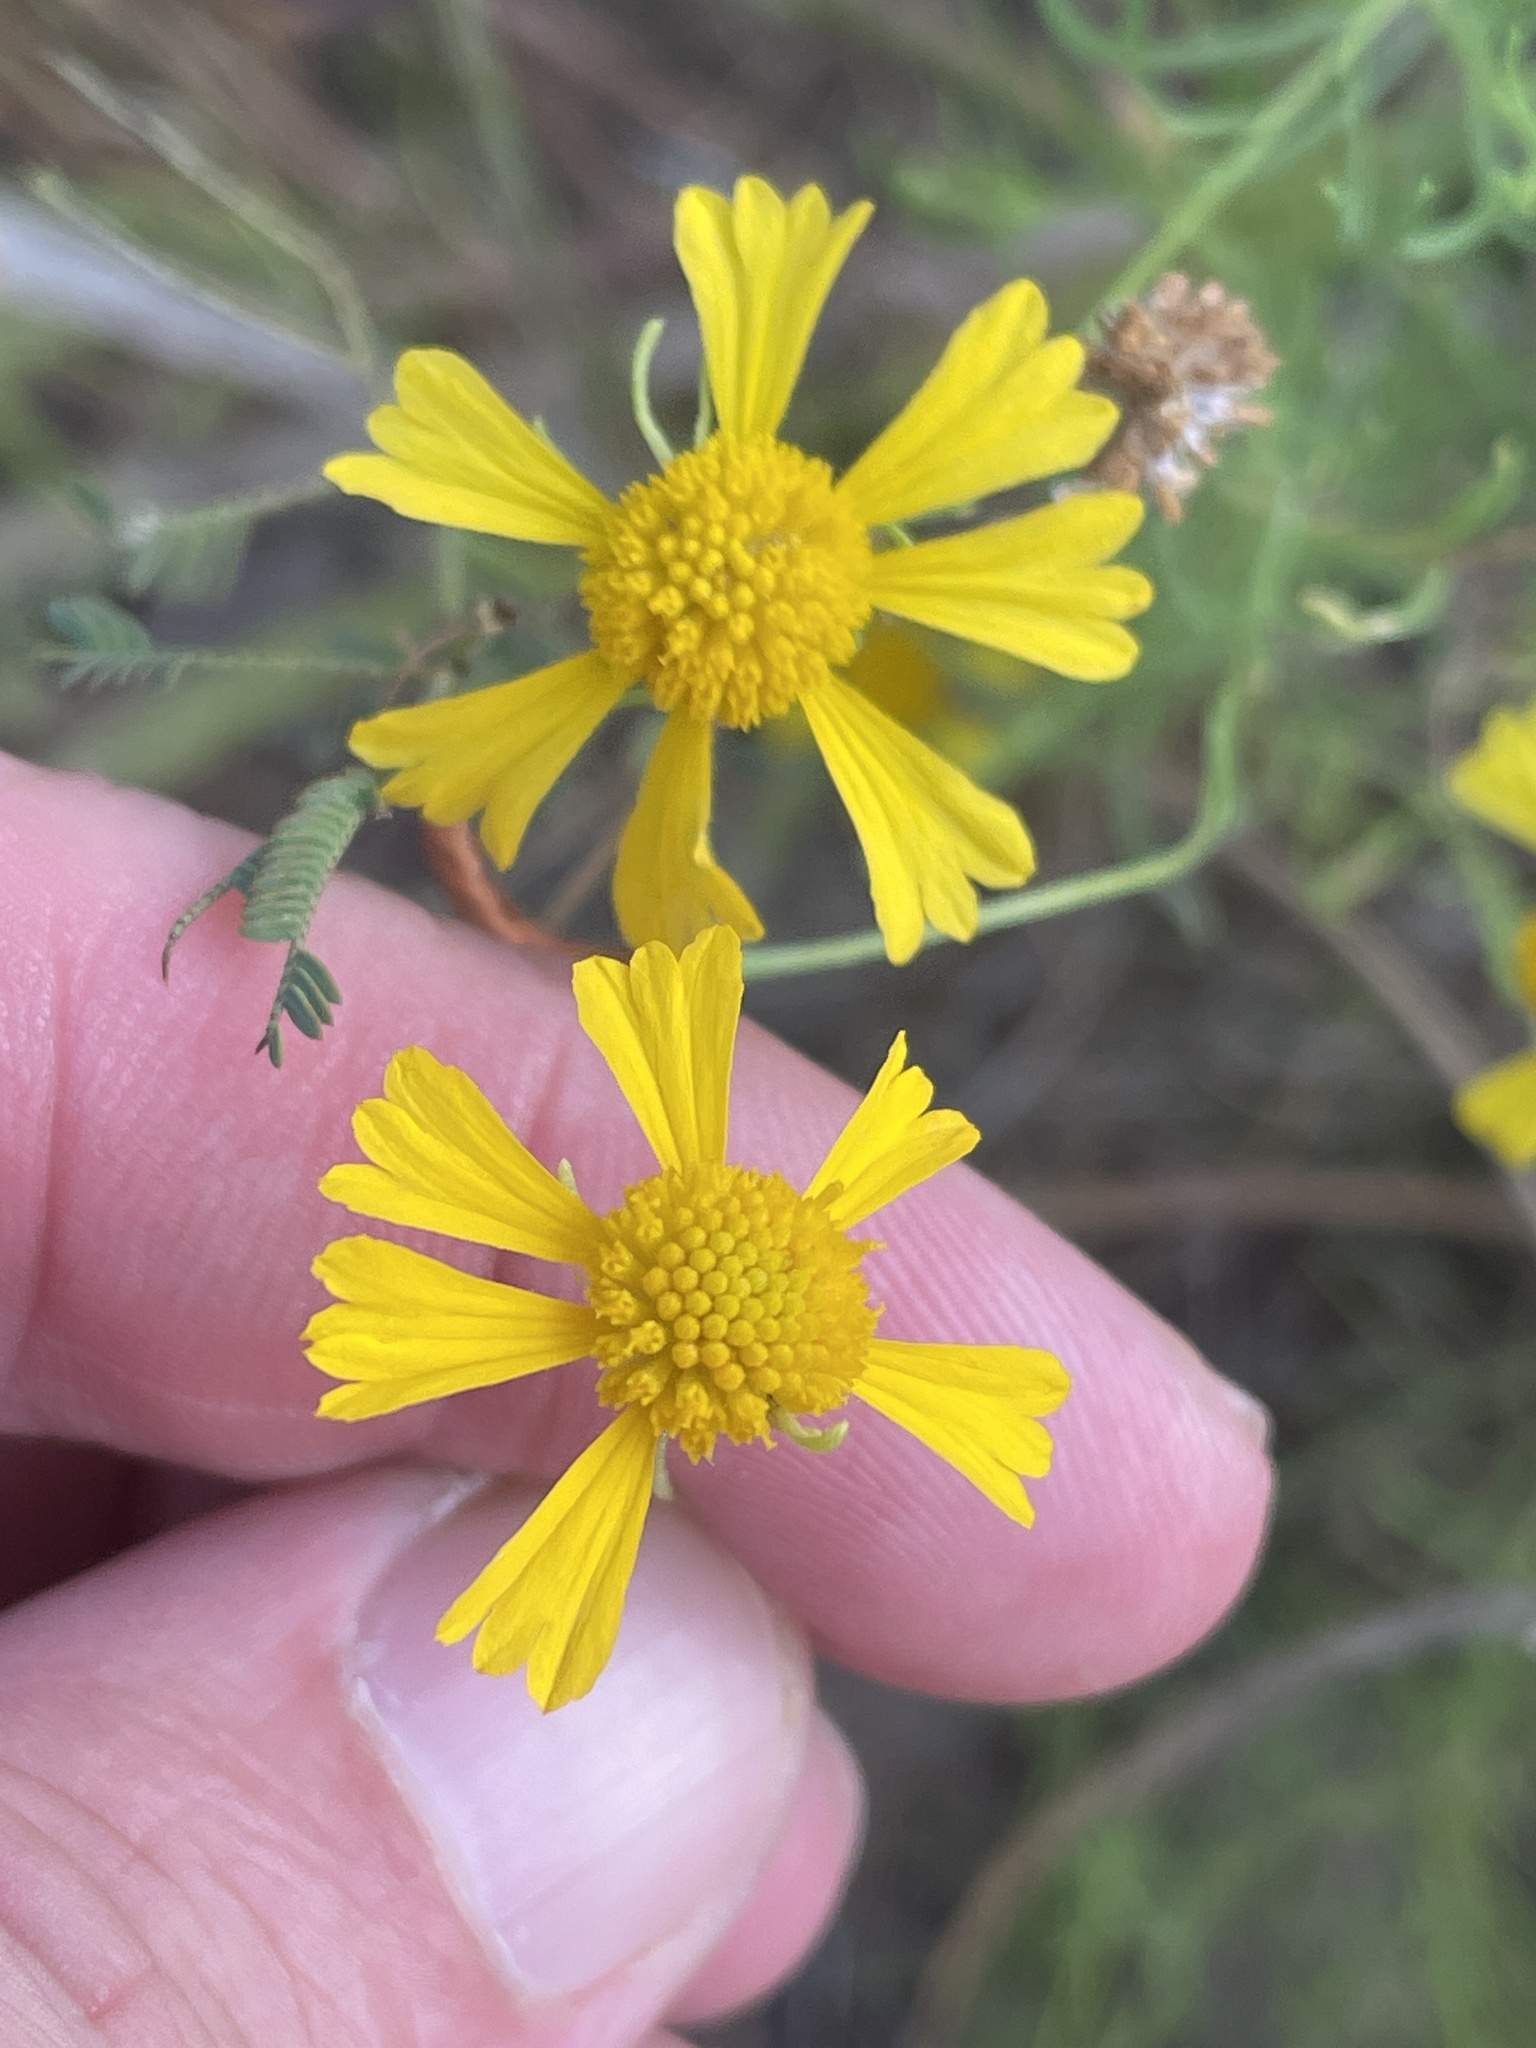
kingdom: Plantae
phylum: Tracheophyta
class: Magnoliopsida
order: Asterales
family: Asteraceae
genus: Helenium
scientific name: Helenium amarum
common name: Bitter sneezeweed
